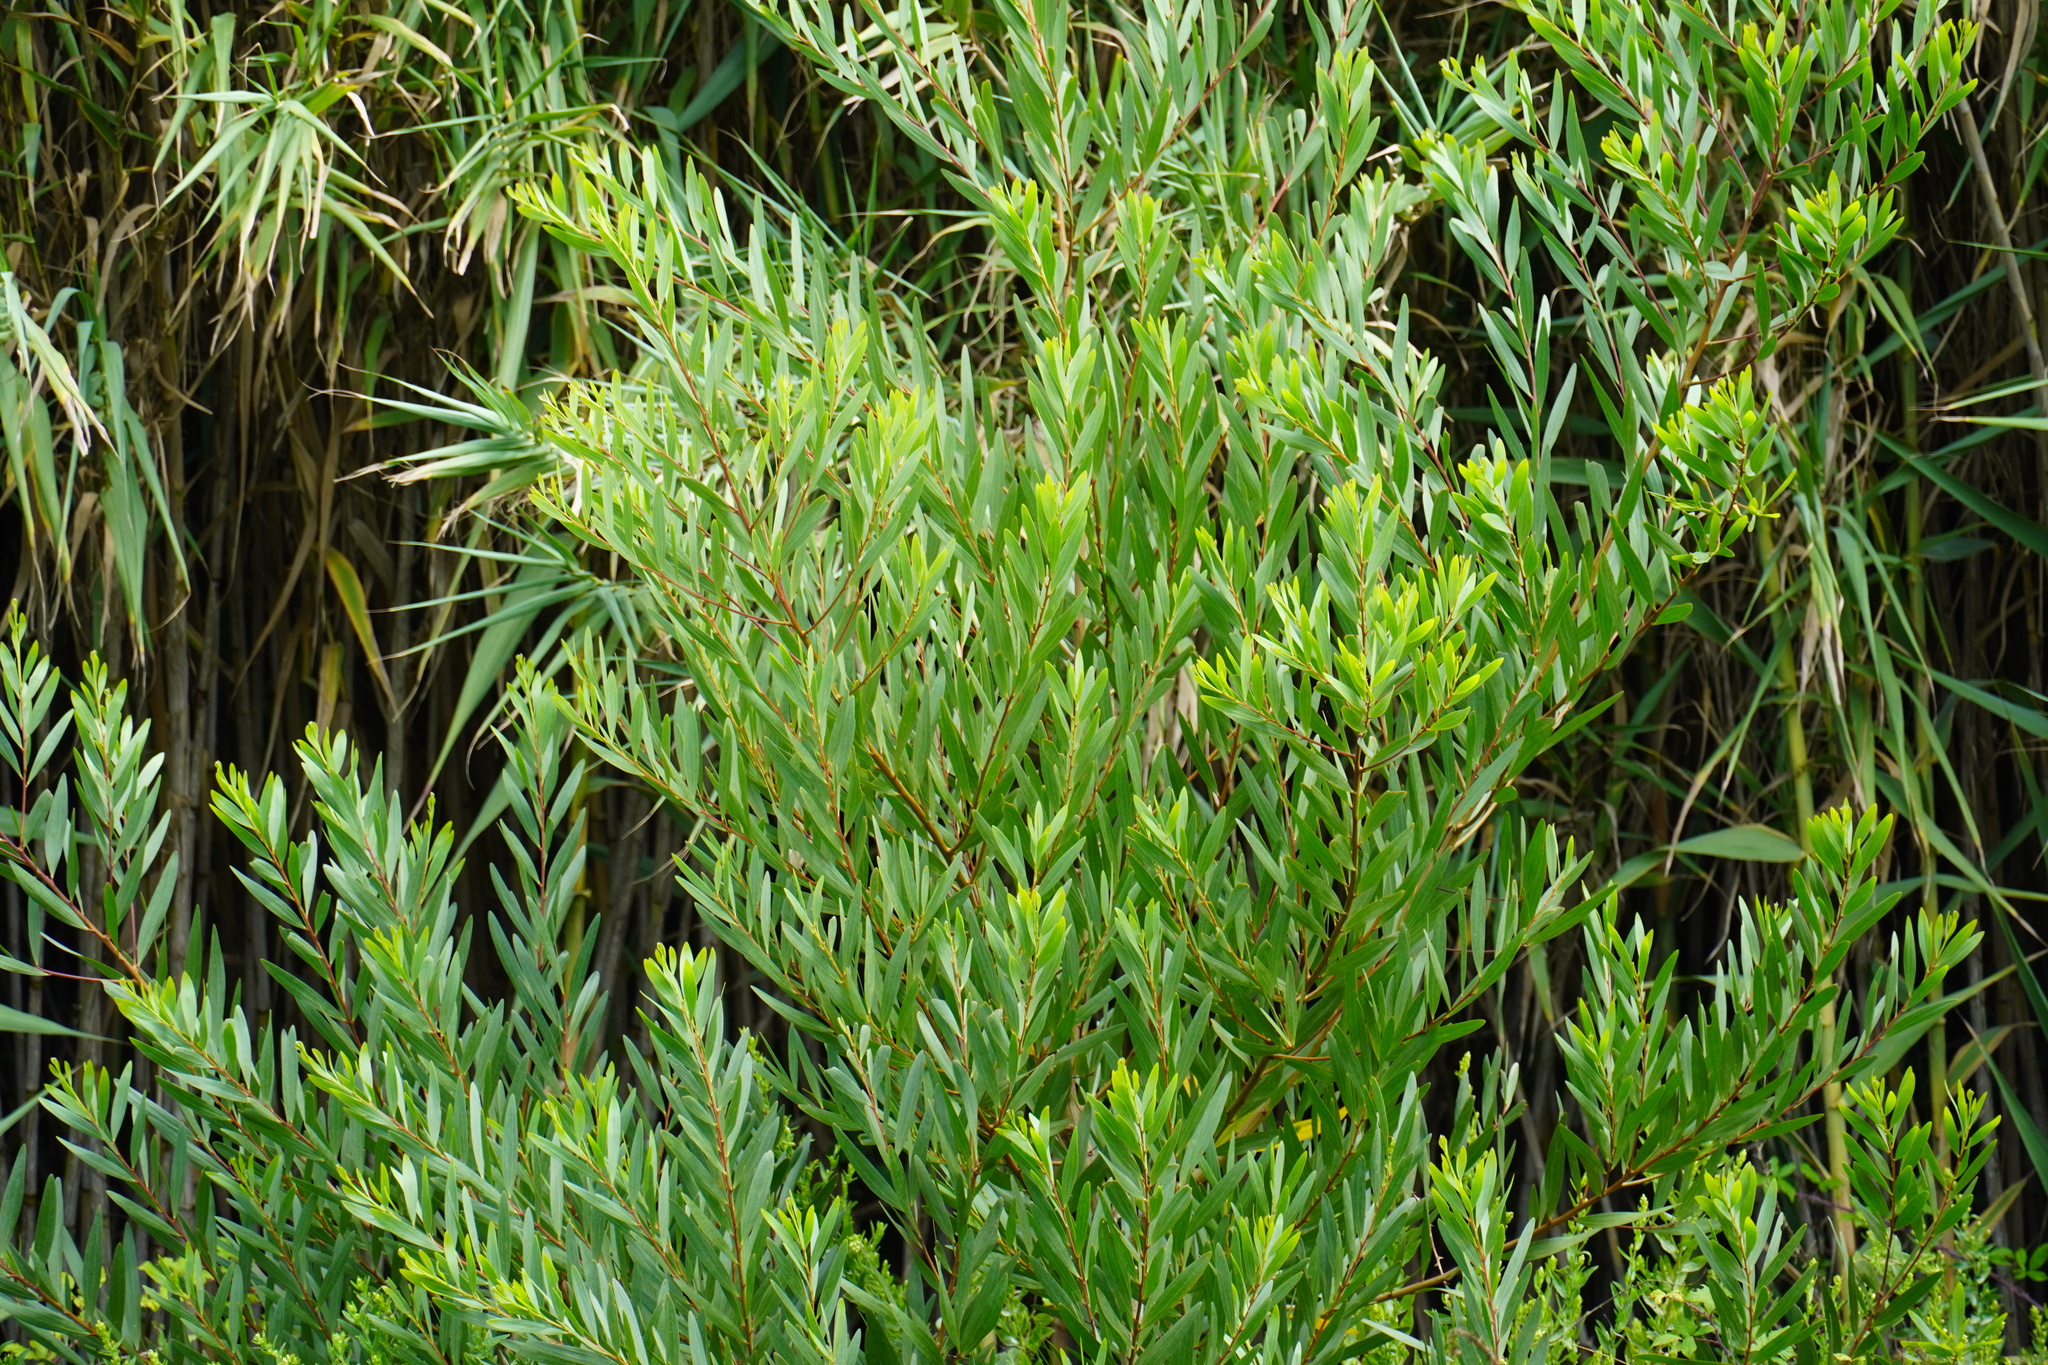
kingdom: Plantae
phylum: Tracheophyta
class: Magnoliopsida
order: Fabales
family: Fabaceae
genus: Acacia
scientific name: Acacia longifolia
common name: Sydney golden wattle
